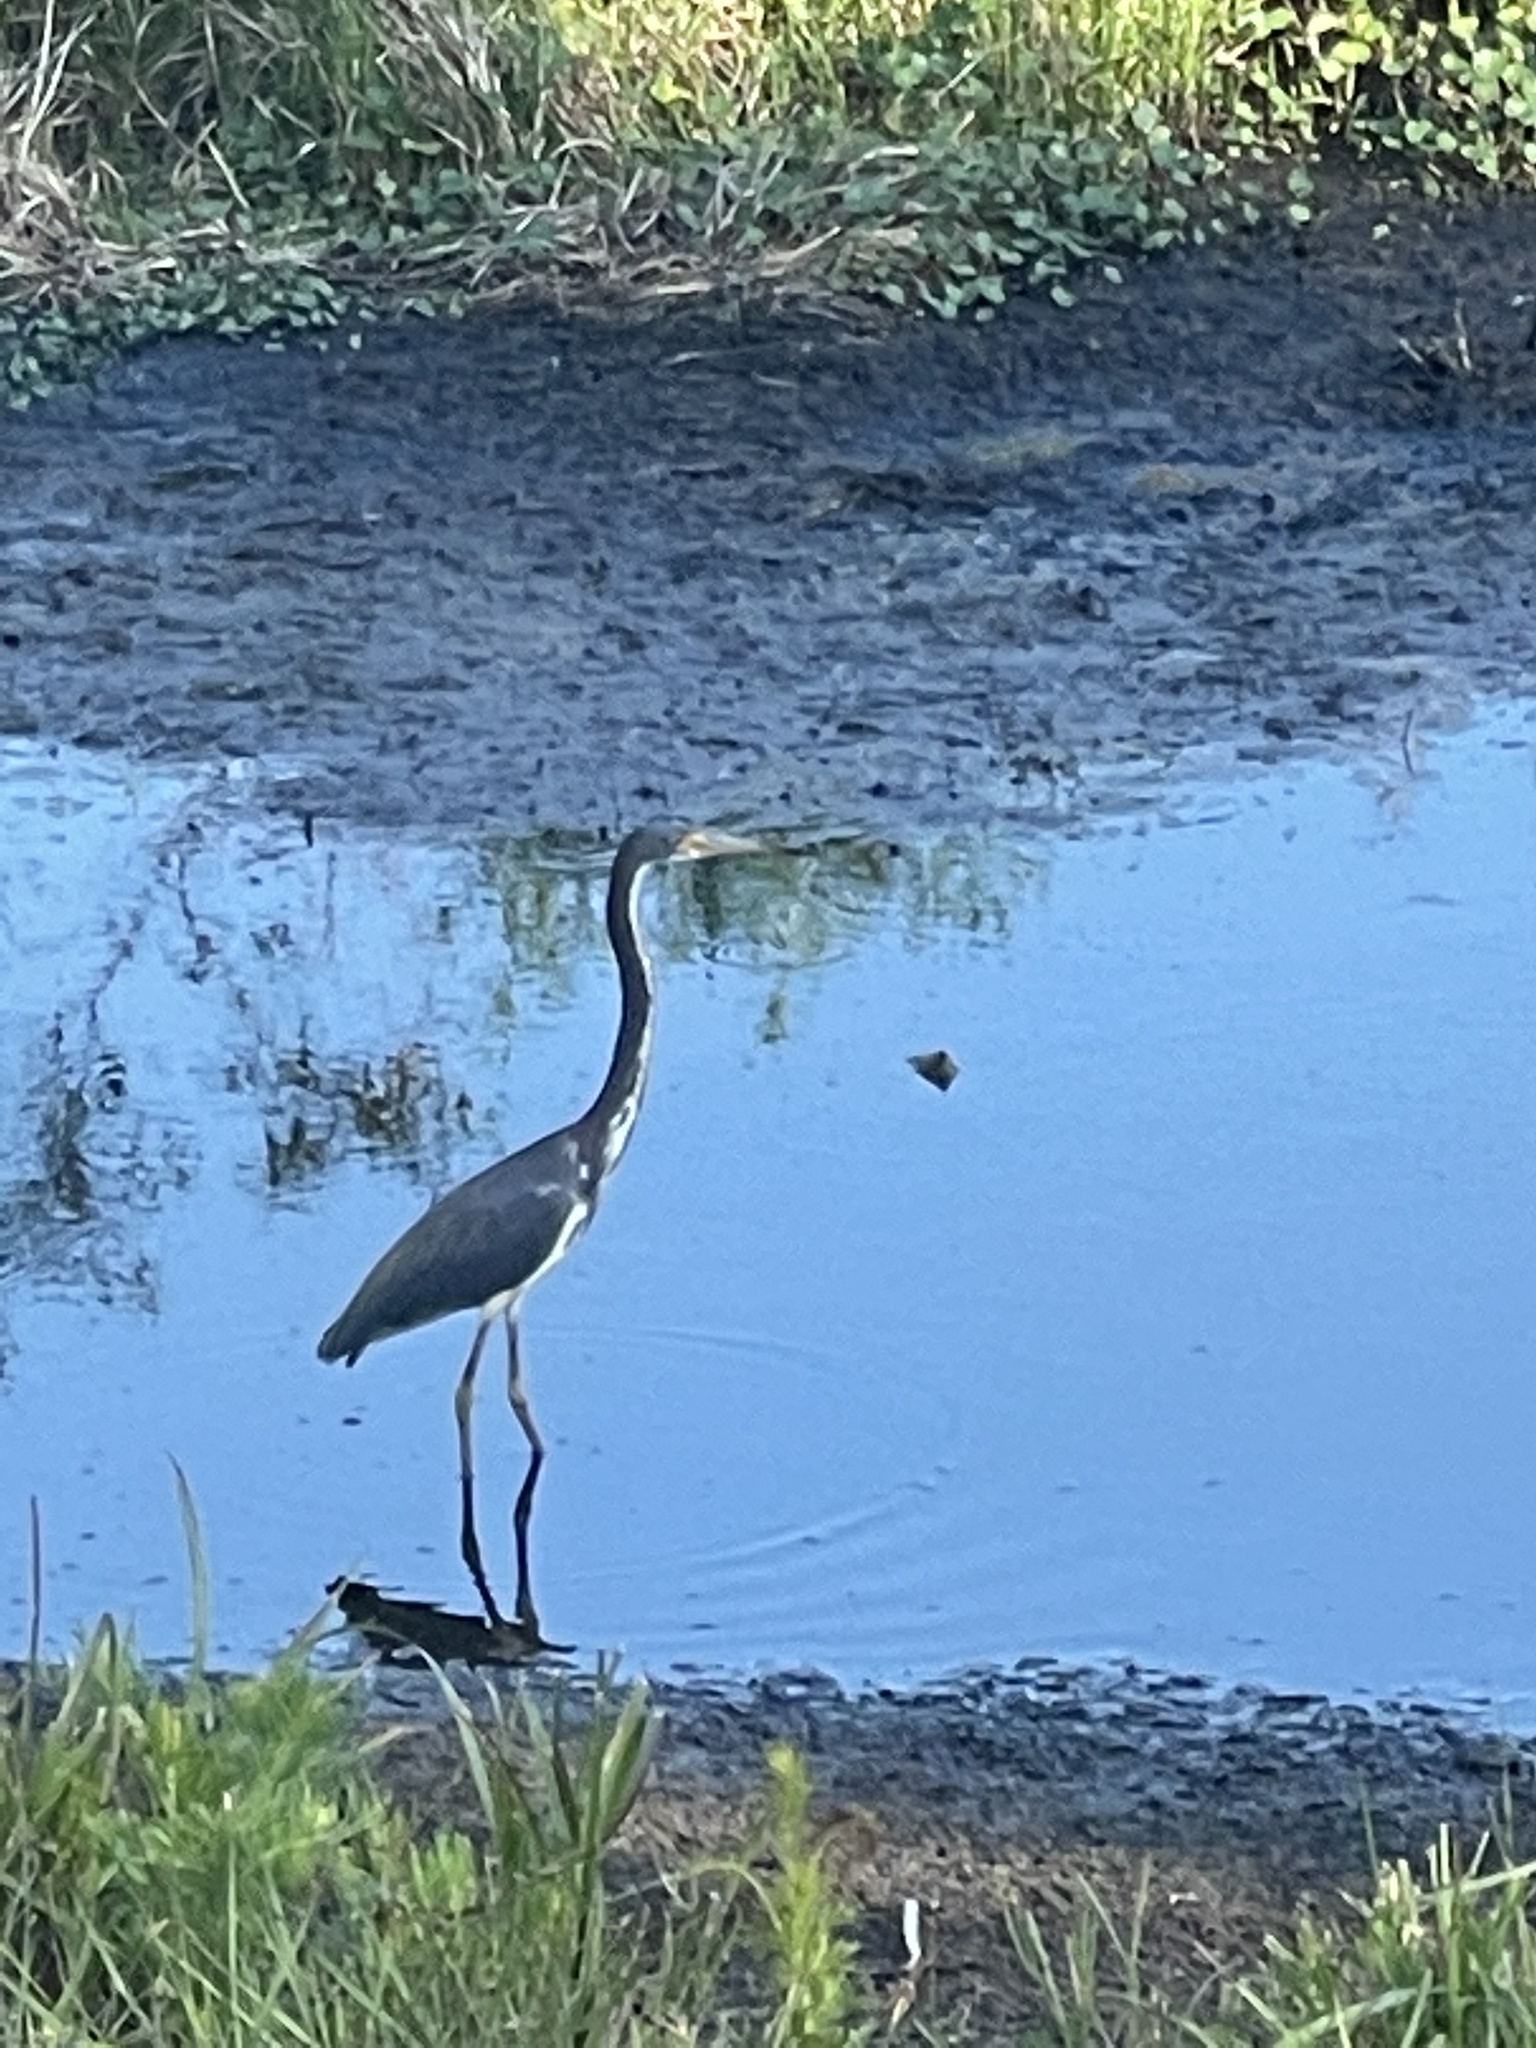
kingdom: Animalia
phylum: Chordata
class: Aves
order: Pelecaniformes
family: Ardeidae
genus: Egretta
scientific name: Egretta tricolor
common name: Tricolored heron
